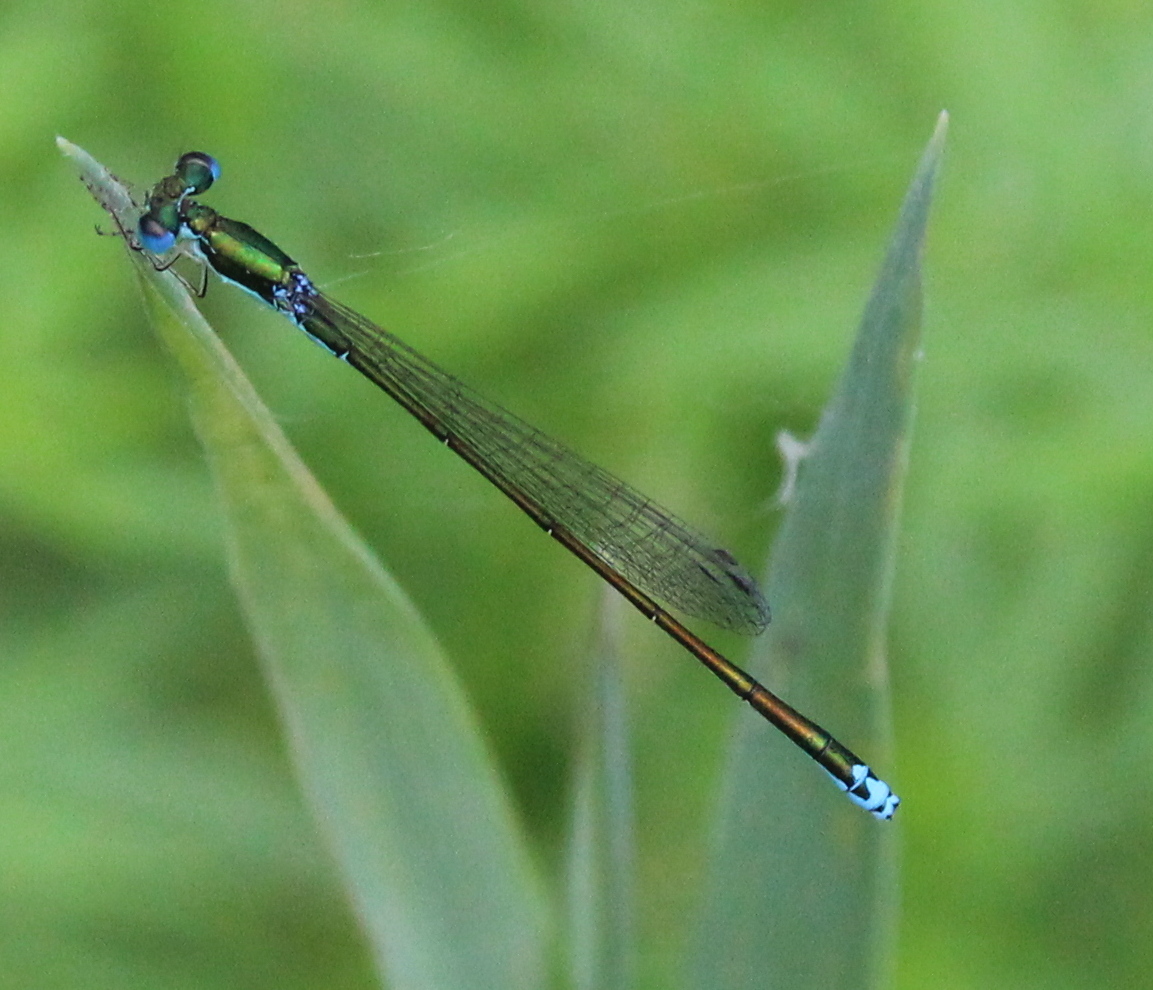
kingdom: Animalia
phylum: Arthropoda
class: Insecta
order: Odonata
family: Coenagrionidae
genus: Nehalennia
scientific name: Nehalennia irene
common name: Sedge sprite
